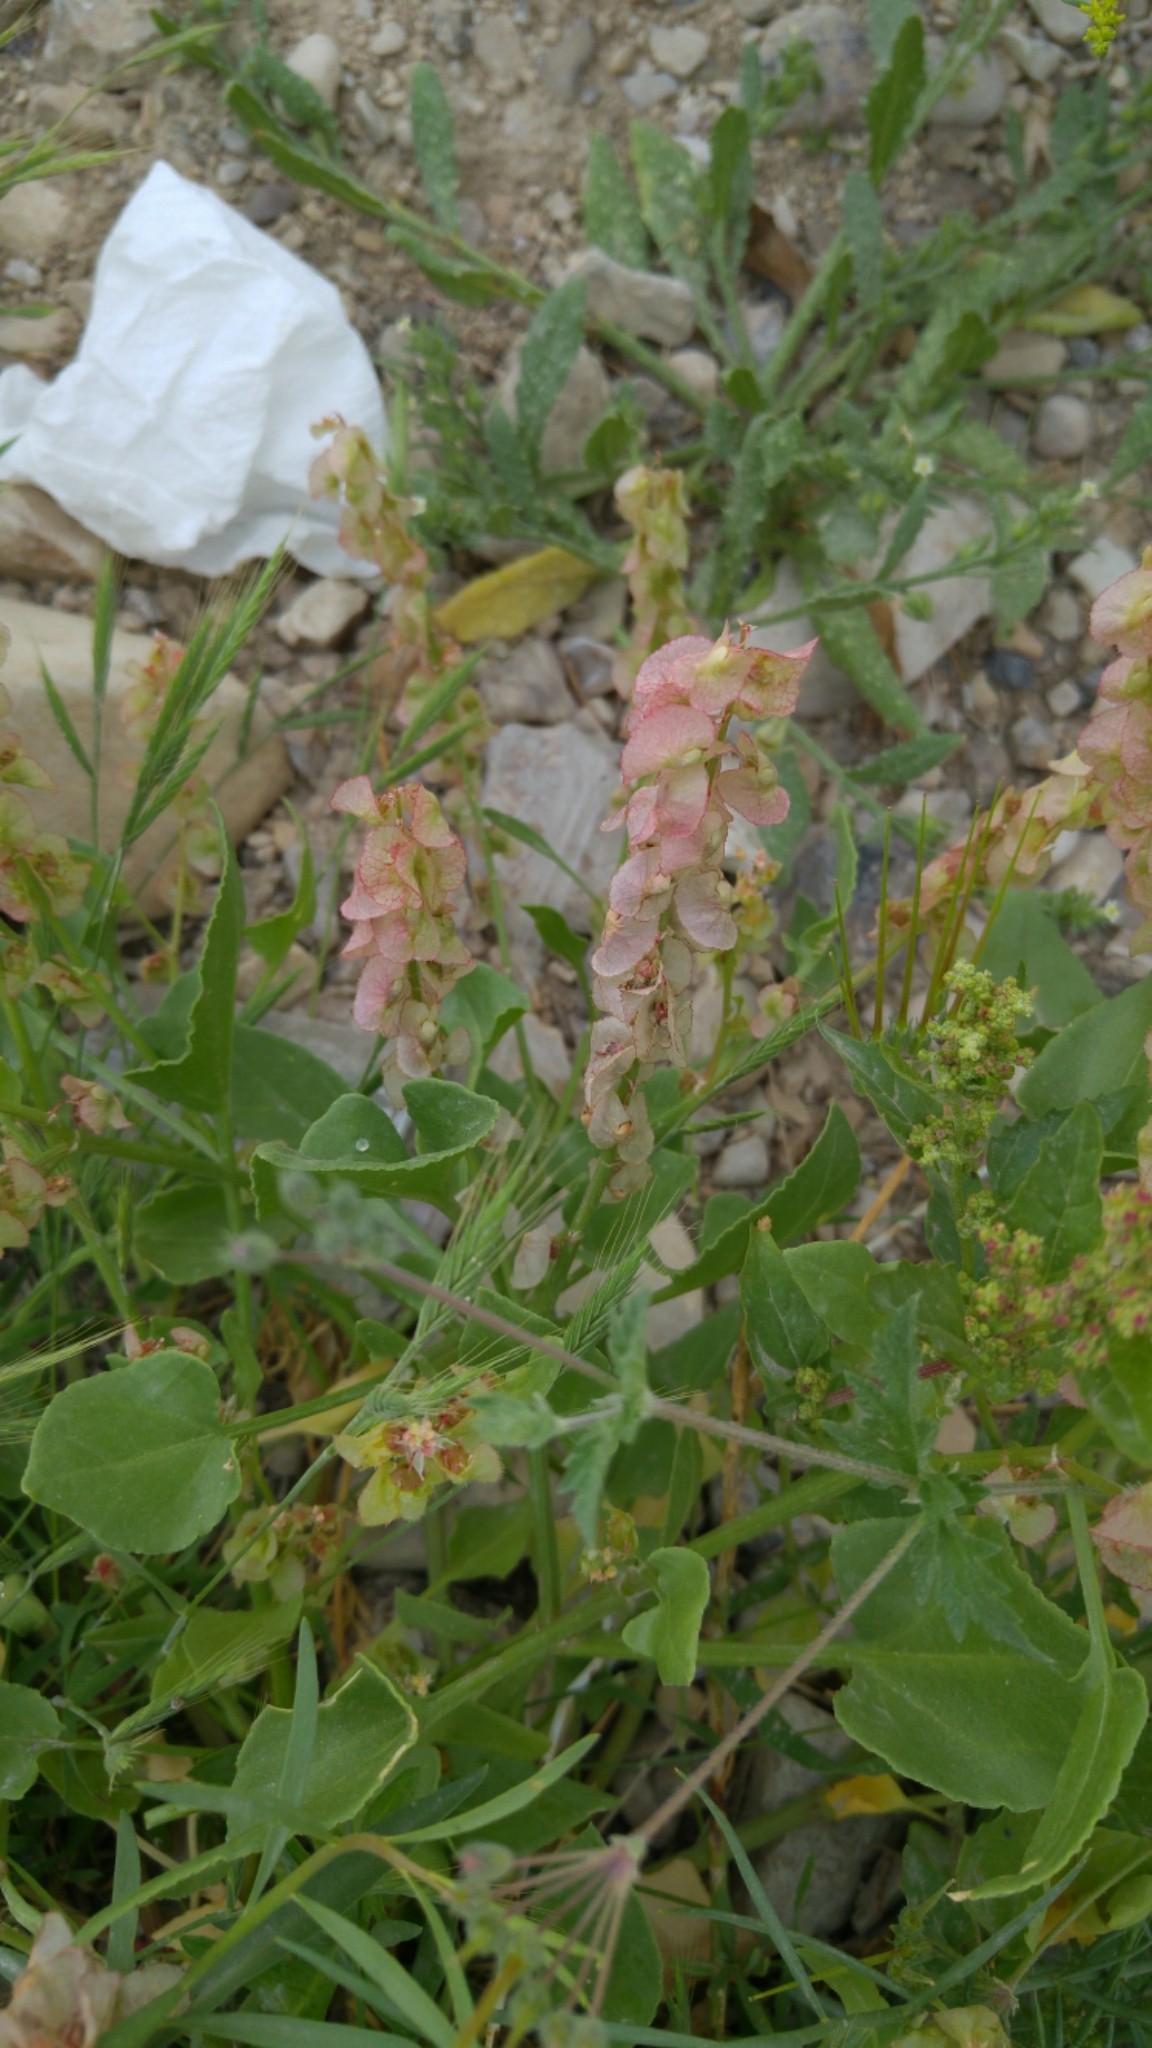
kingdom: Plantae
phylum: Tracheophyta
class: Magnoliopsida
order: Caryophyllales
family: Polygonaceae
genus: Rumex
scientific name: Rumex cyprius
